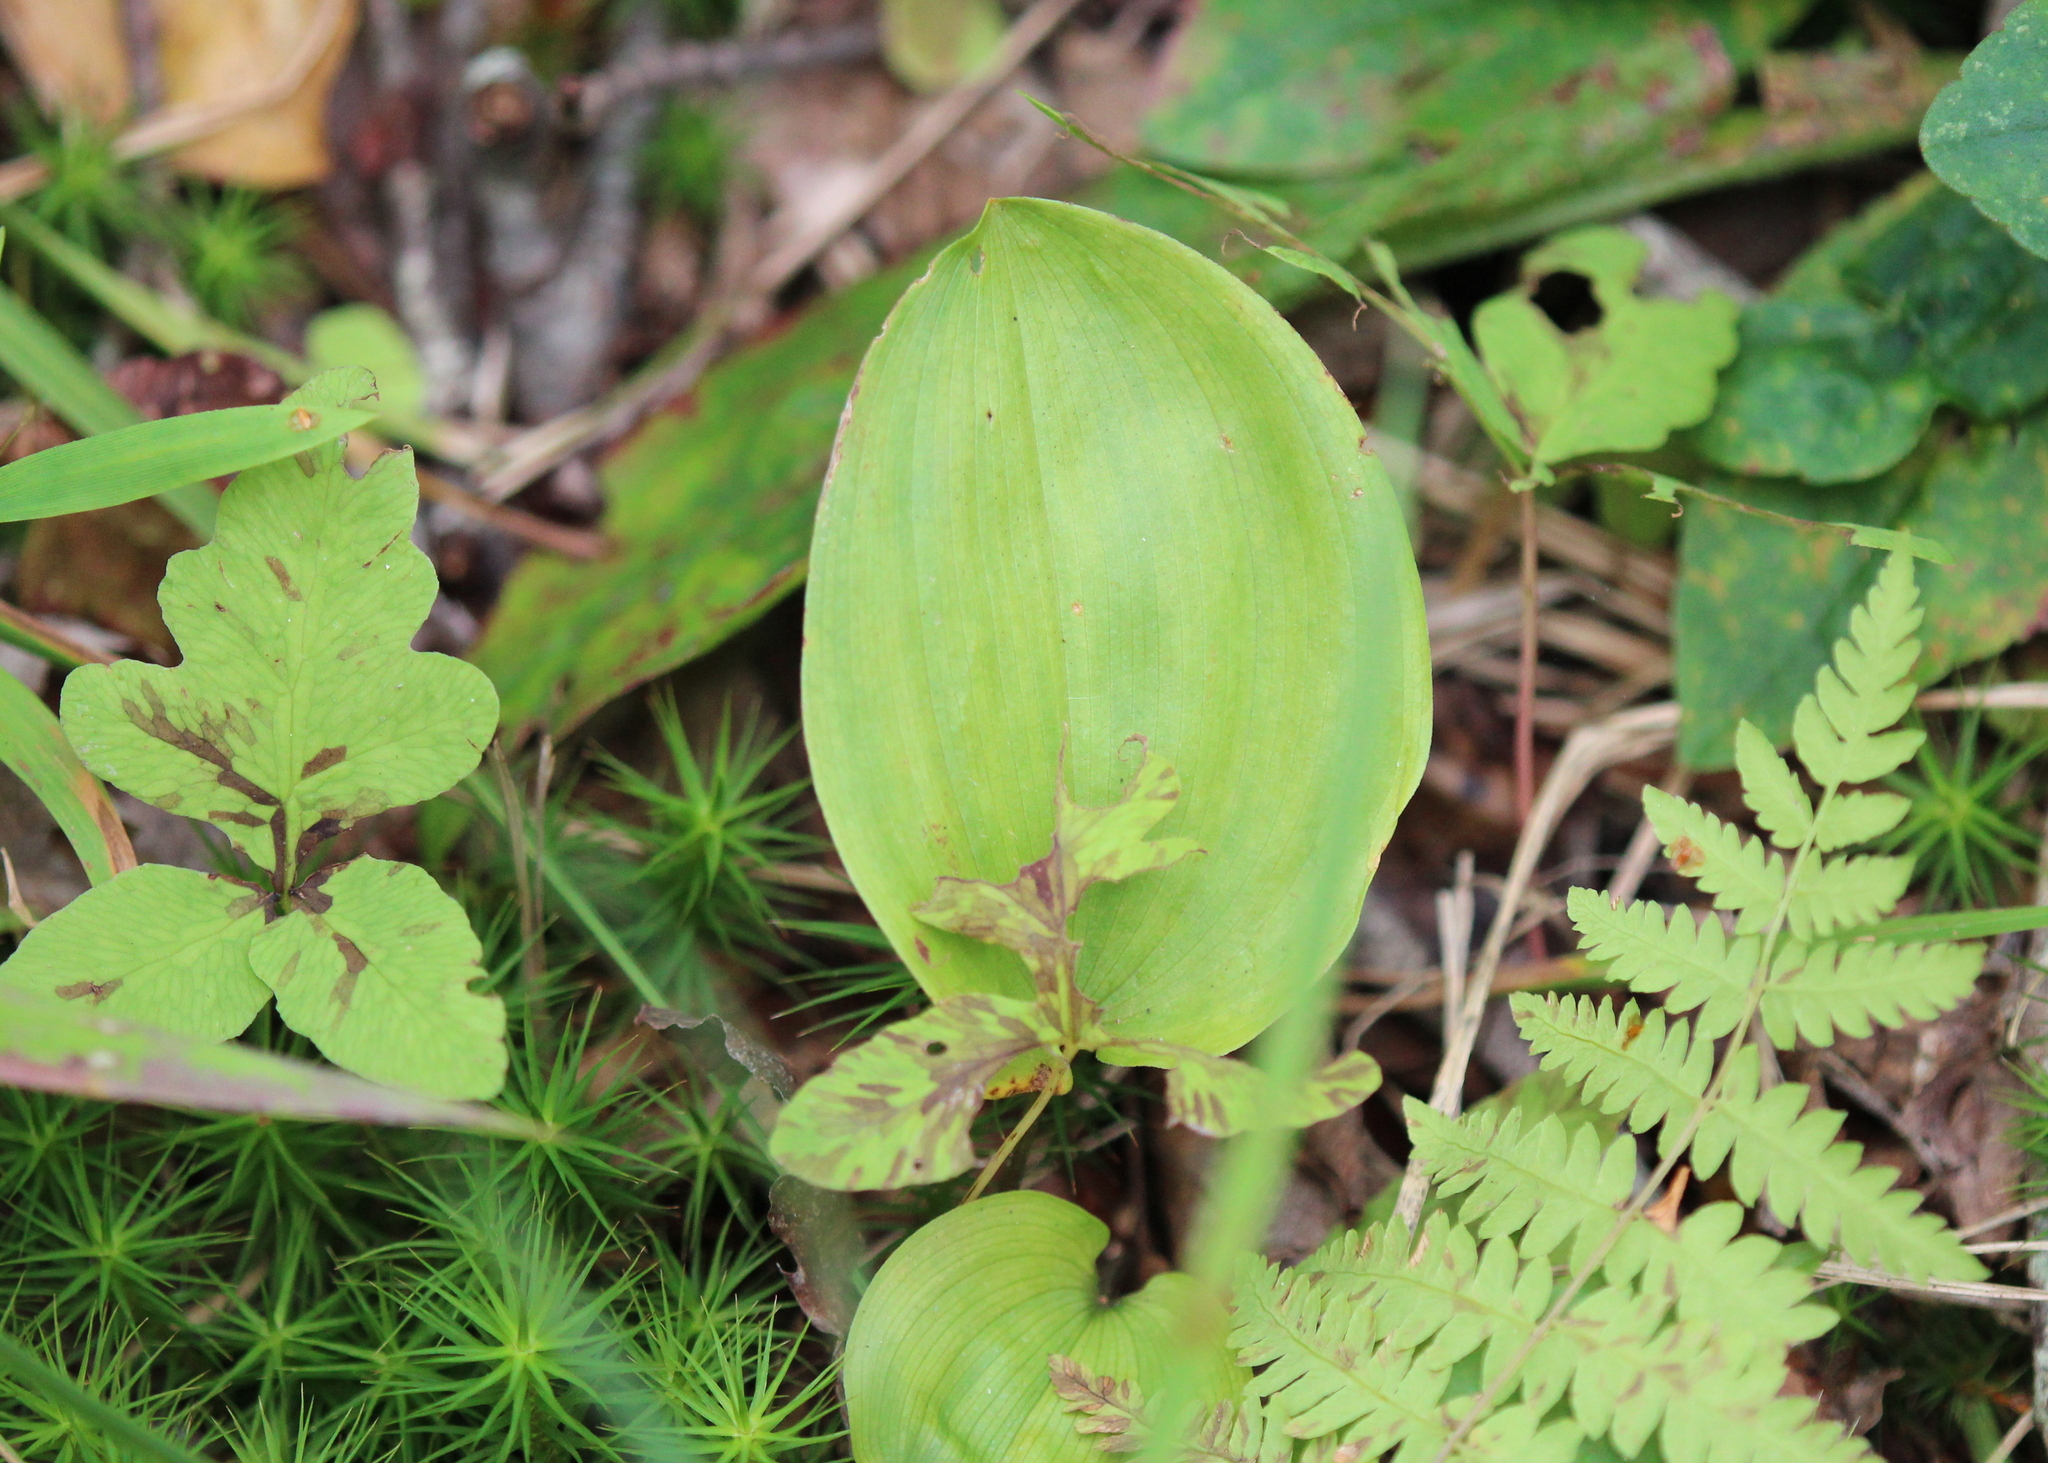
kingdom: Plantae
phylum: Tracheophyta
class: Liliopsida
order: Asparagales
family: Asparagaceae
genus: Maianthemum
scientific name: Maianthemum canadense
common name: False lily-of-the-valley
